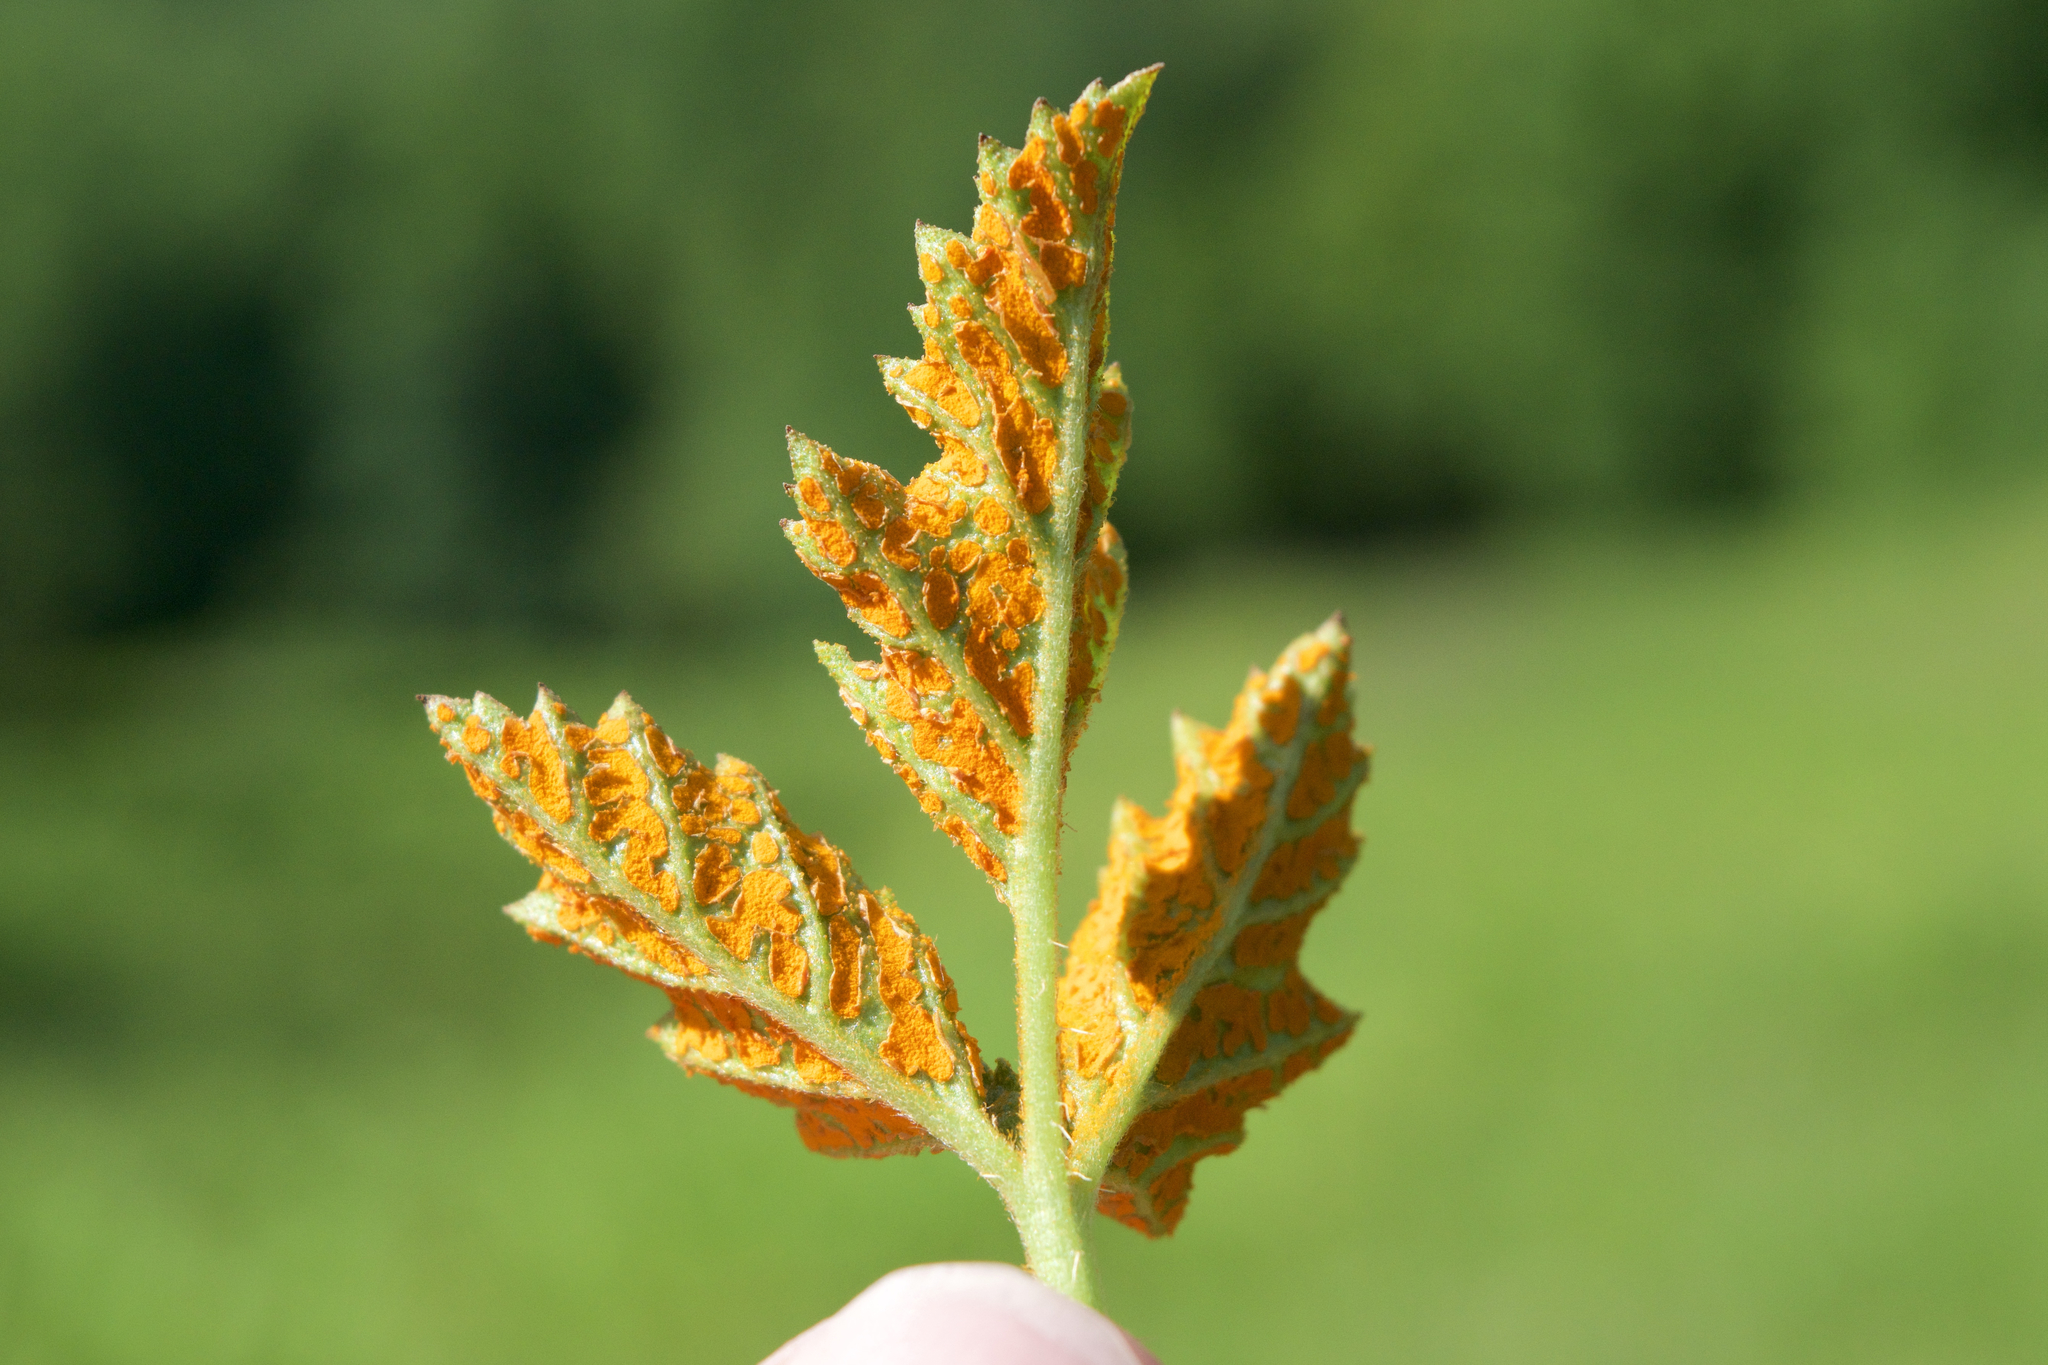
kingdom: Fungi
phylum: Basidiomycota
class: Pucciniomycetes
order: Pucciniales
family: Phragmidiaceae
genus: Arthuriomyces
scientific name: Arthuriomyces peckianus
